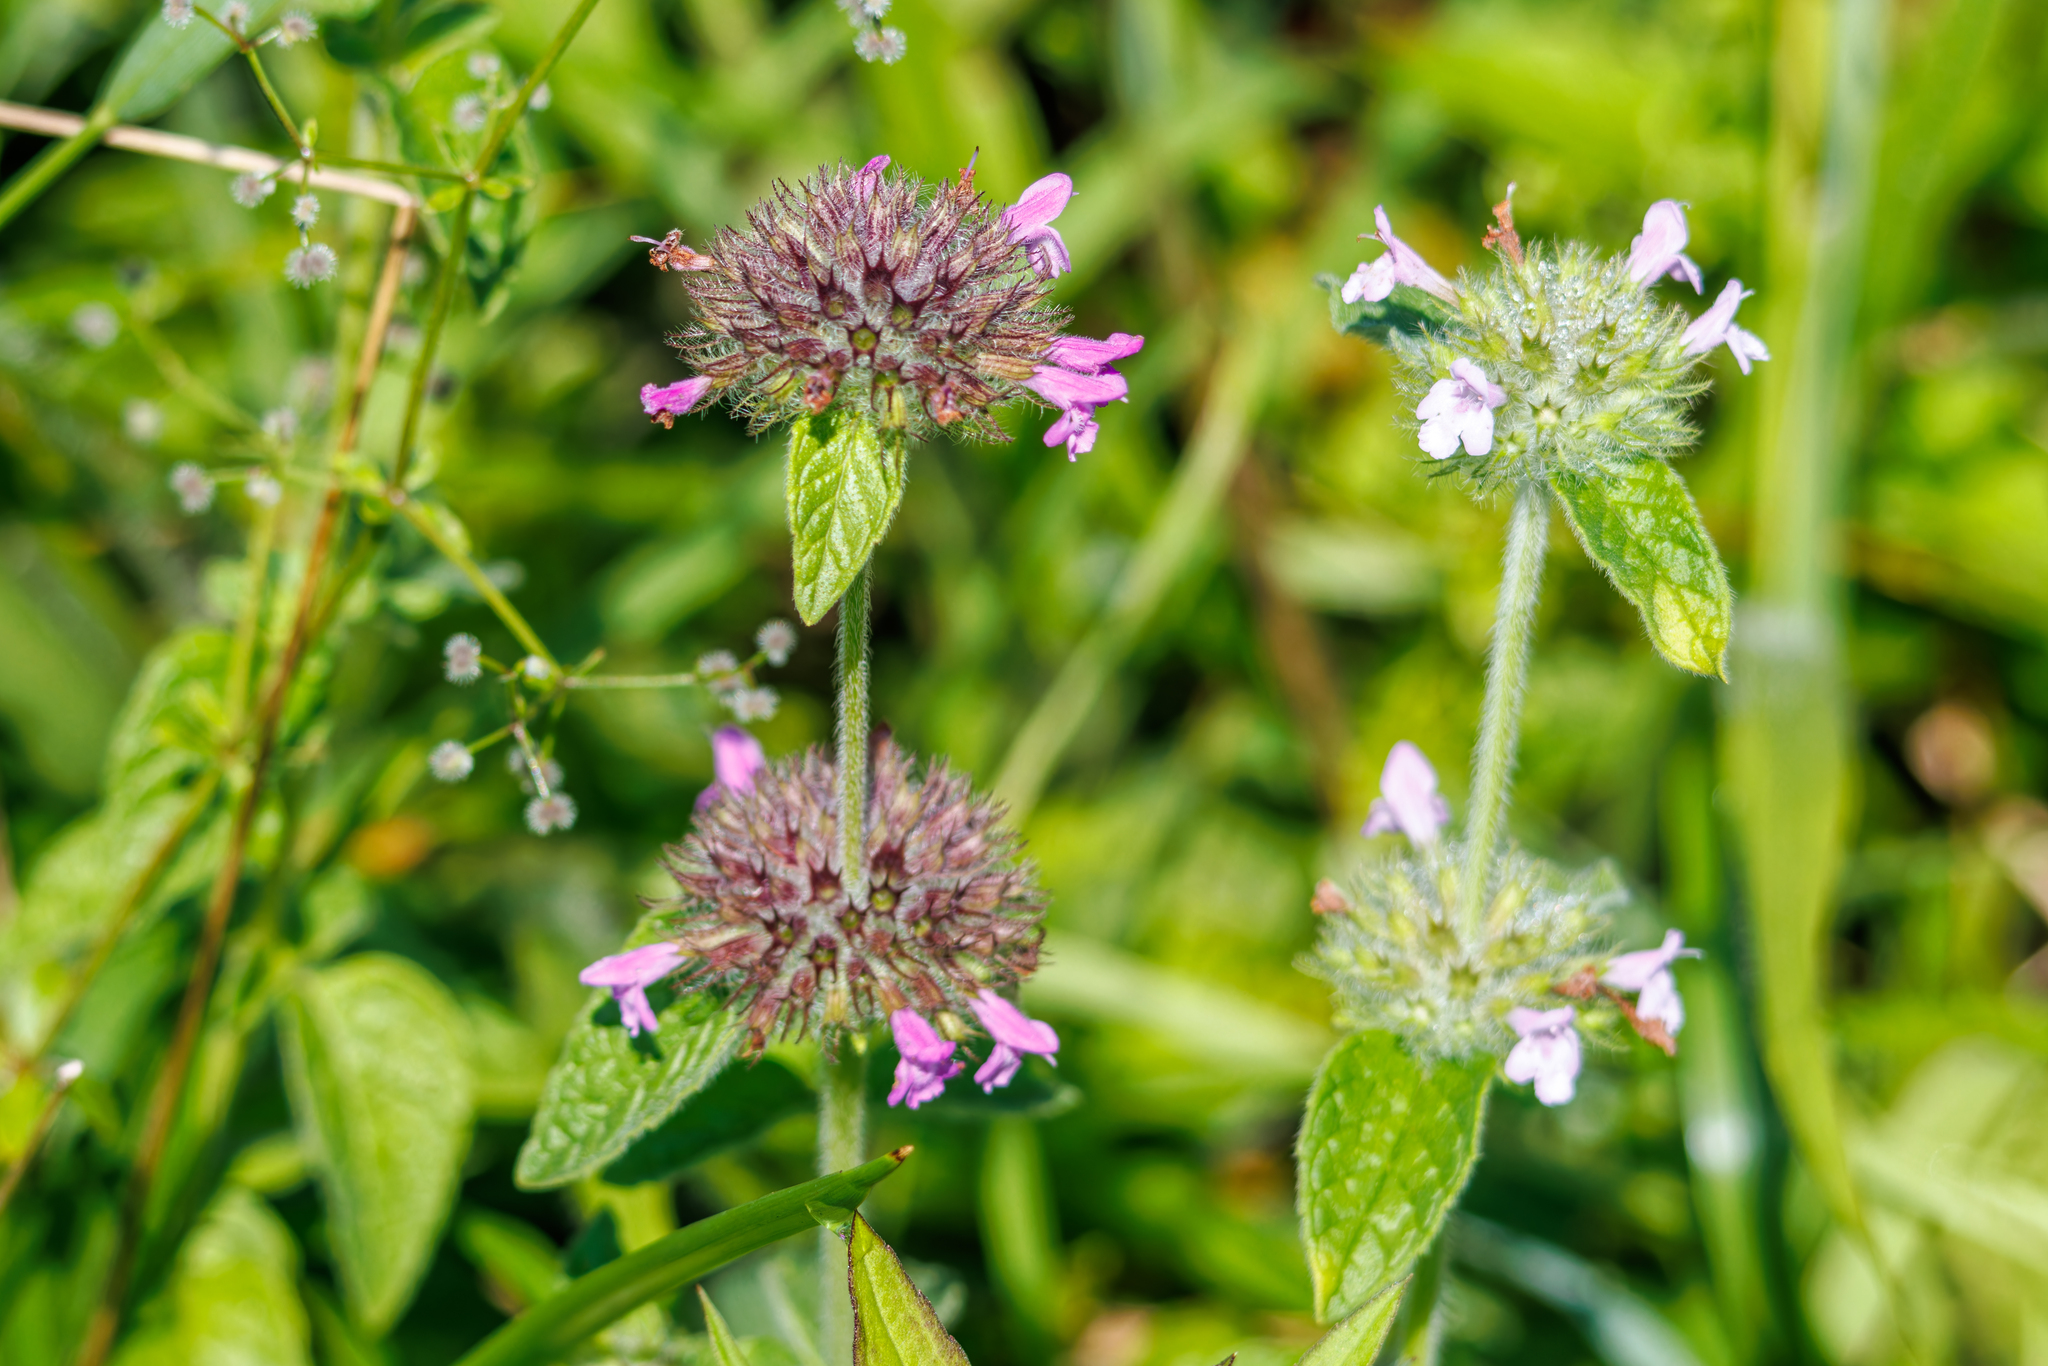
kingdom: Plantae
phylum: Tracheophyta
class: Magnoliopsida
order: Lamiales
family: Lamiaceae
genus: Clinopodium
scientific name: Clinopodium vulgare
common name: Wild basil
